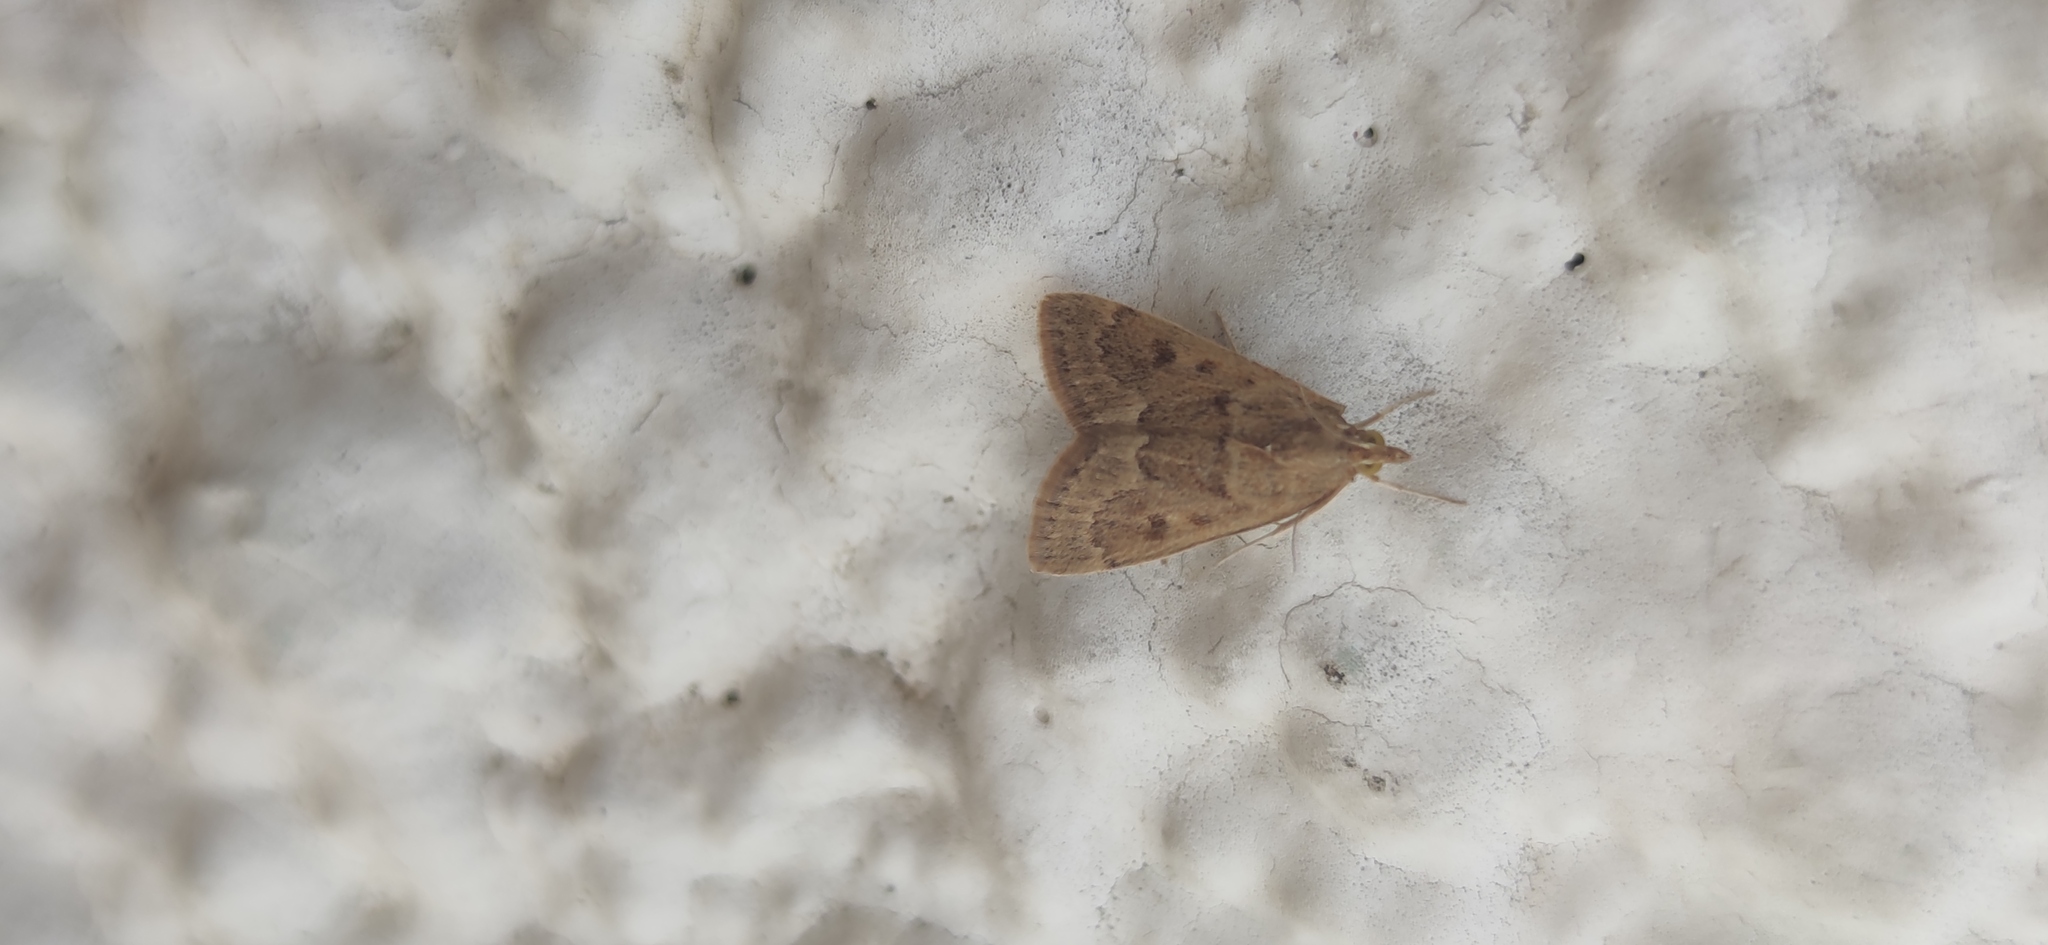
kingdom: Animalia
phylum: Arthropoda
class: Insecta
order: Lepidoptera
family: Crambidae
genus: Achyra
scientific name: Achyra rantalis
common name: Garden webworm
